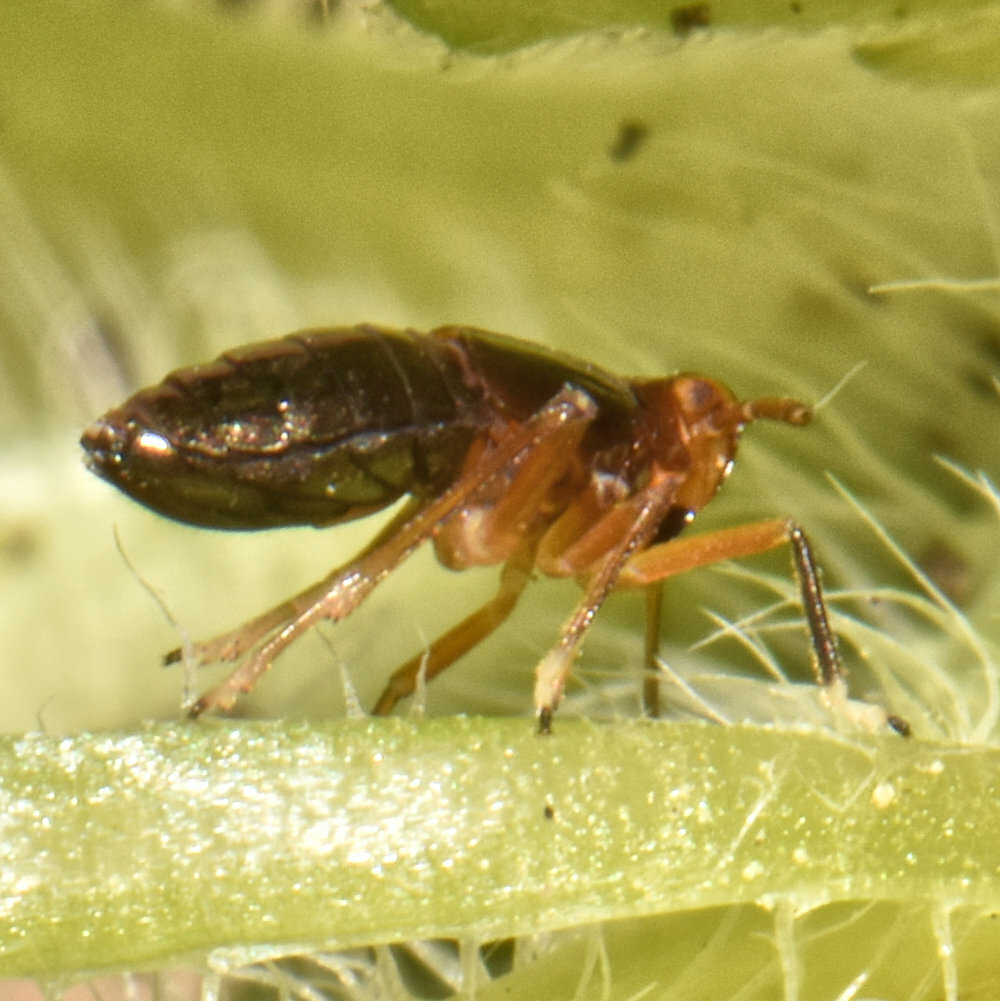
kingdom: Animalia
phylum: Arthropoda
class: Insecta
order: Hemiptera
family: Delphacidae
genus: Pissonotus
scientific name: Pissonotus marginatus
